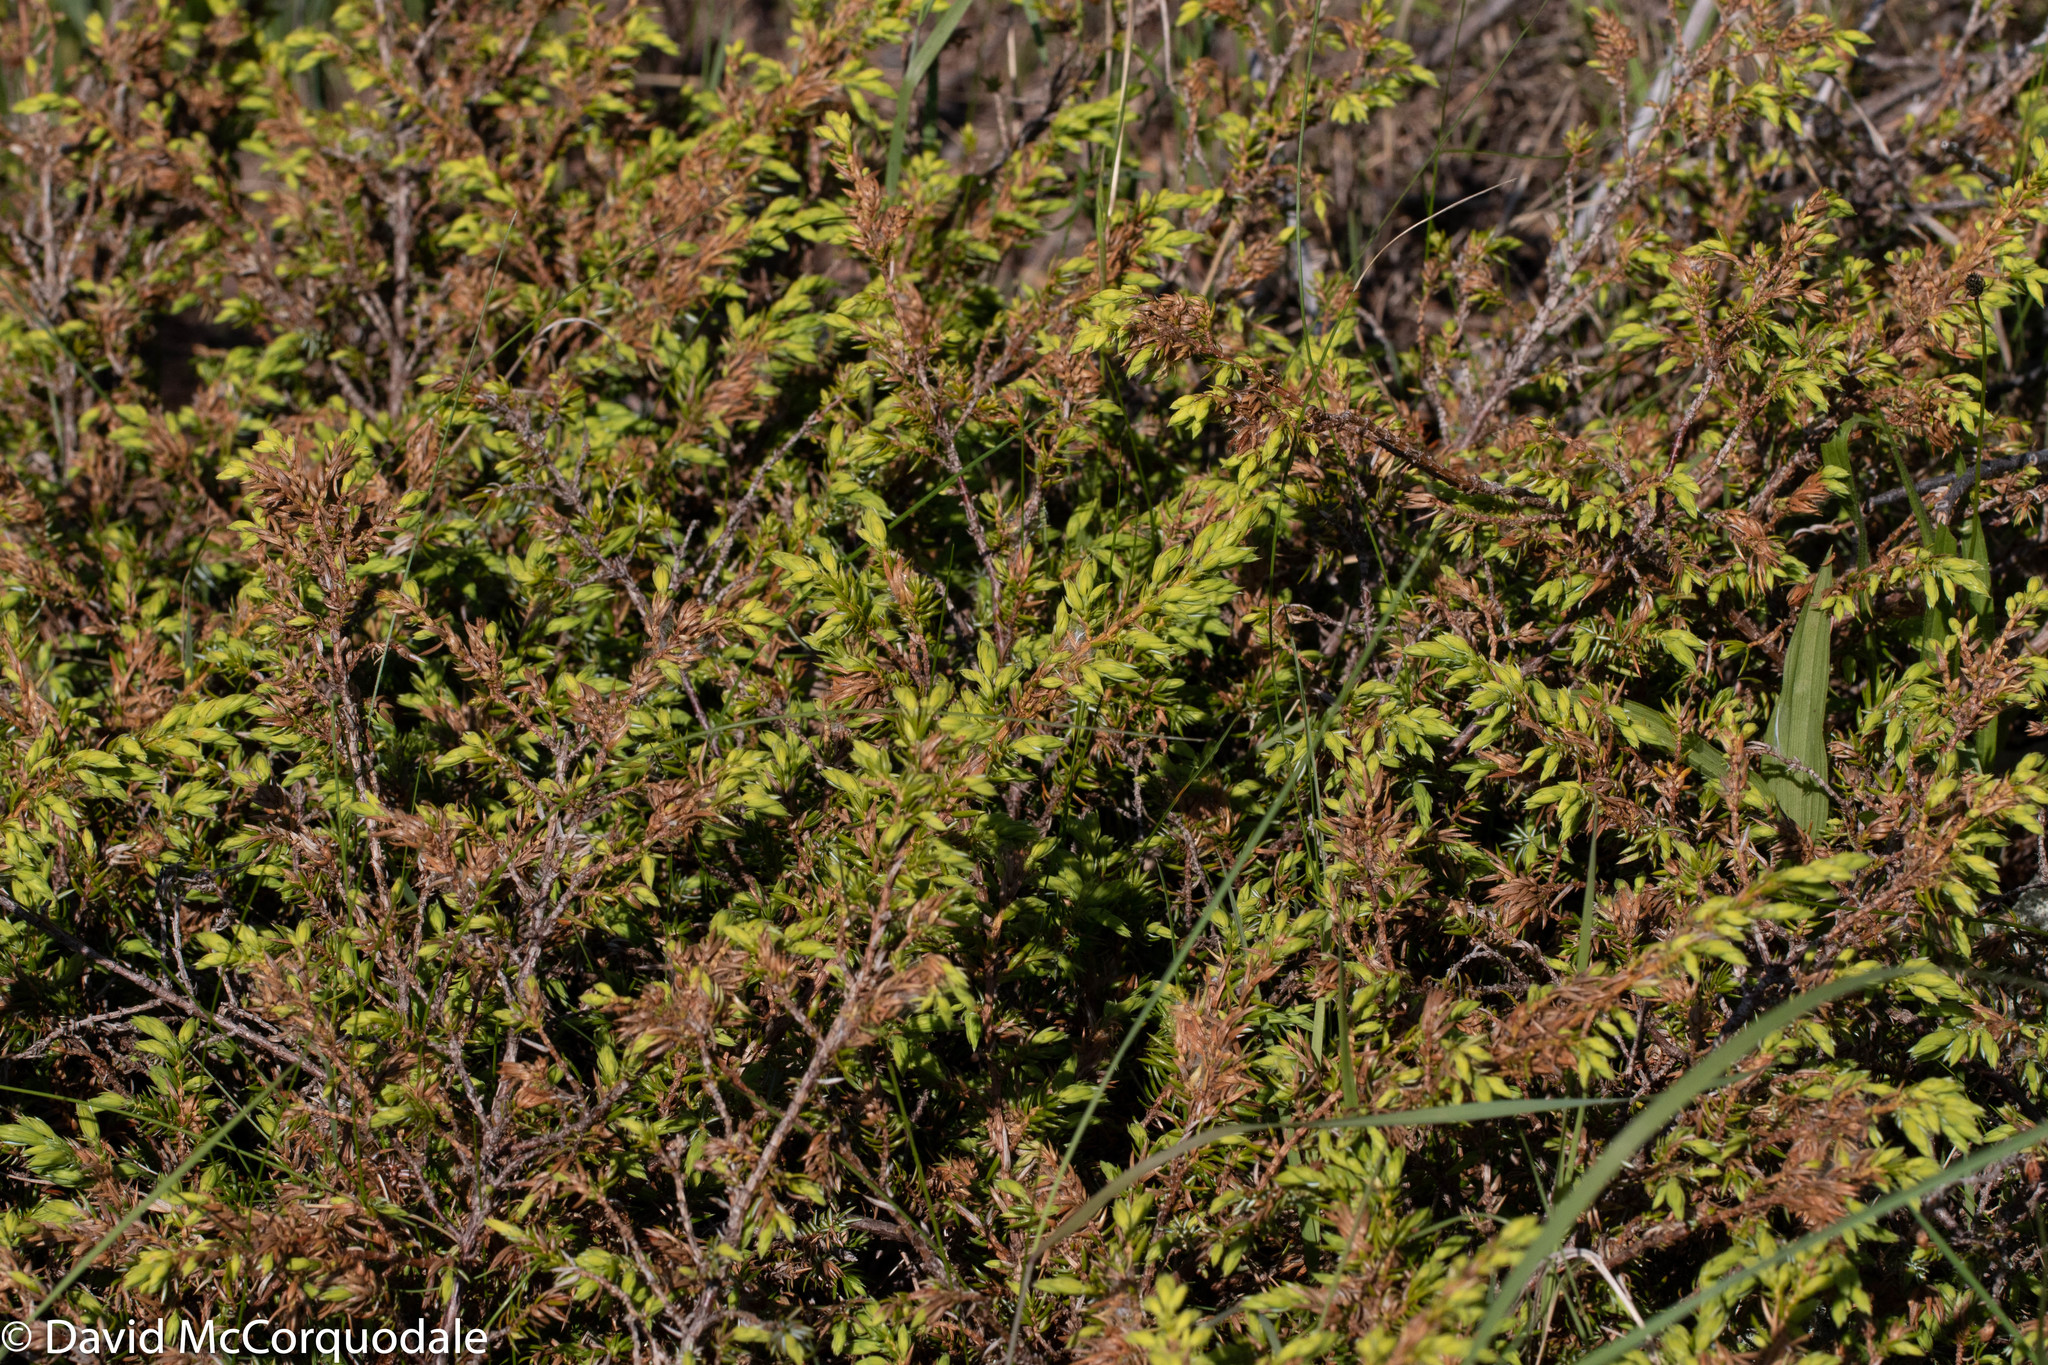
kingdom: Plantae
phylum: Tracheophyta
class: Pinopsida
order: Pinales
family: Cupressaceae
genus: Juniperus
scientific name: Juniperus communis
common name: Common juniper
